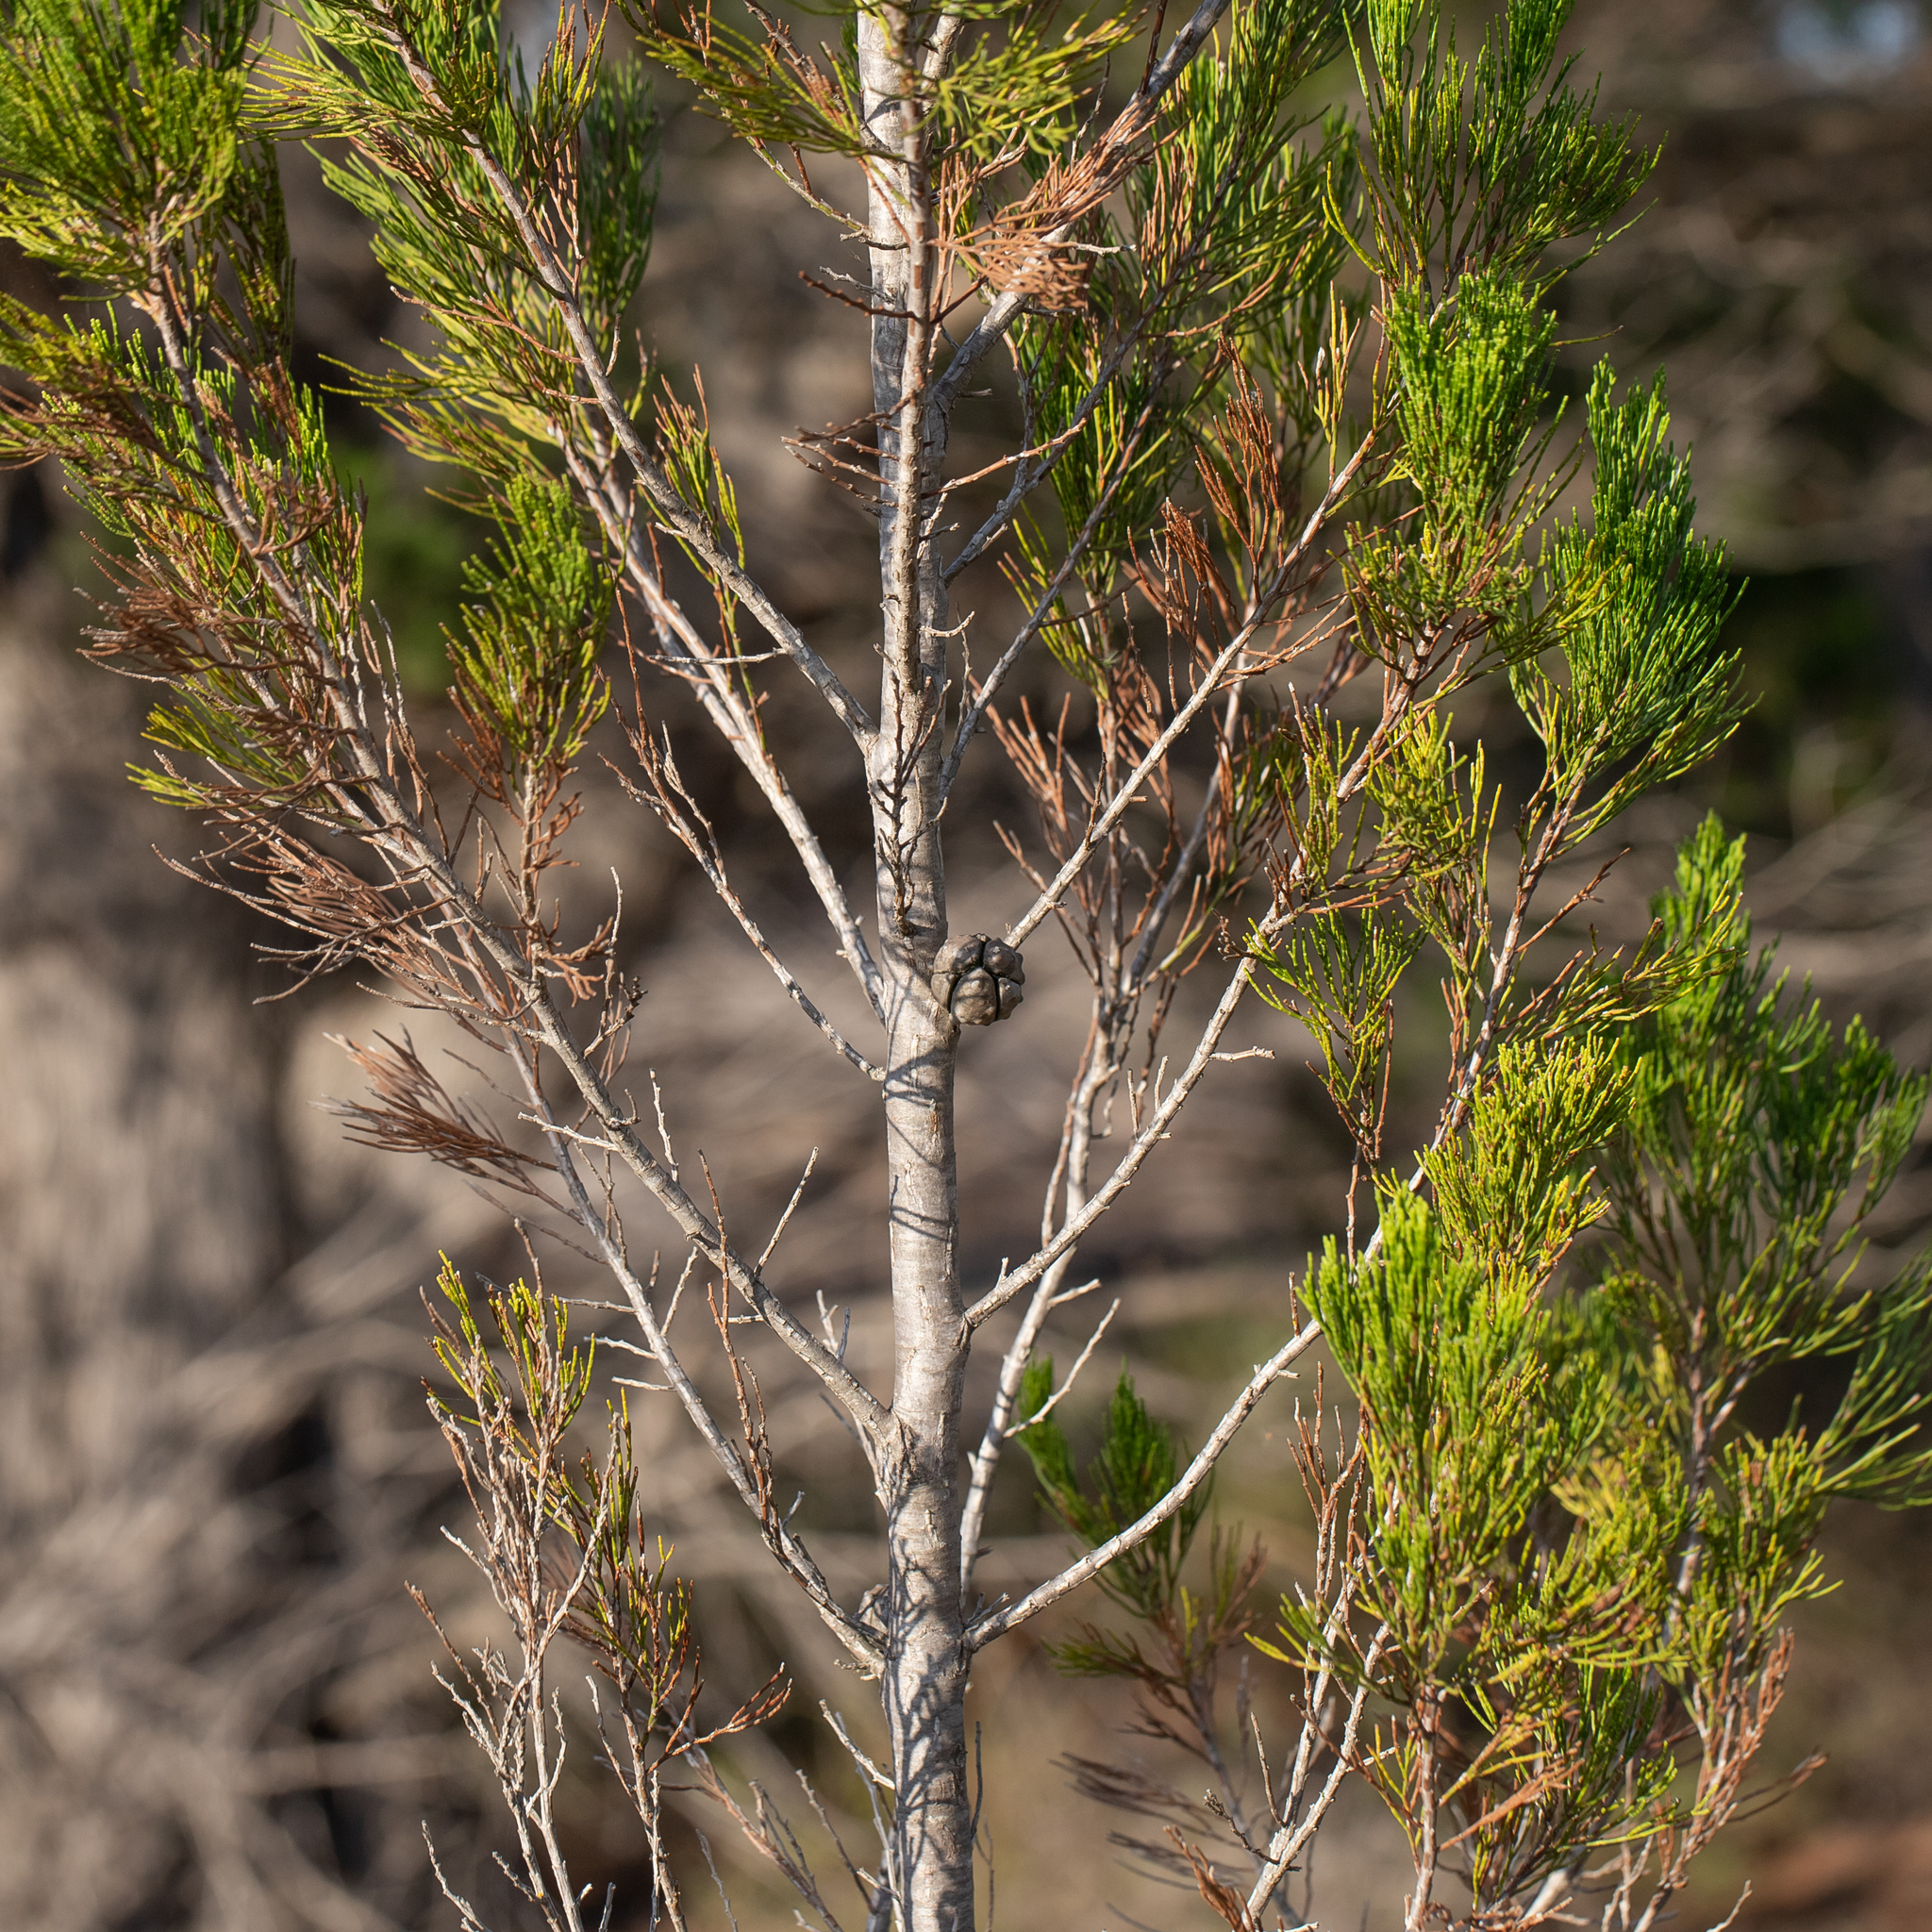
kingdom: Plantae
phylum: Tracheophyta
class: Pinopsida
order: Pinales
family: Cupressaceae
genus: Callitris
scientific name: Callitris preissii
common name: Mallee pine
